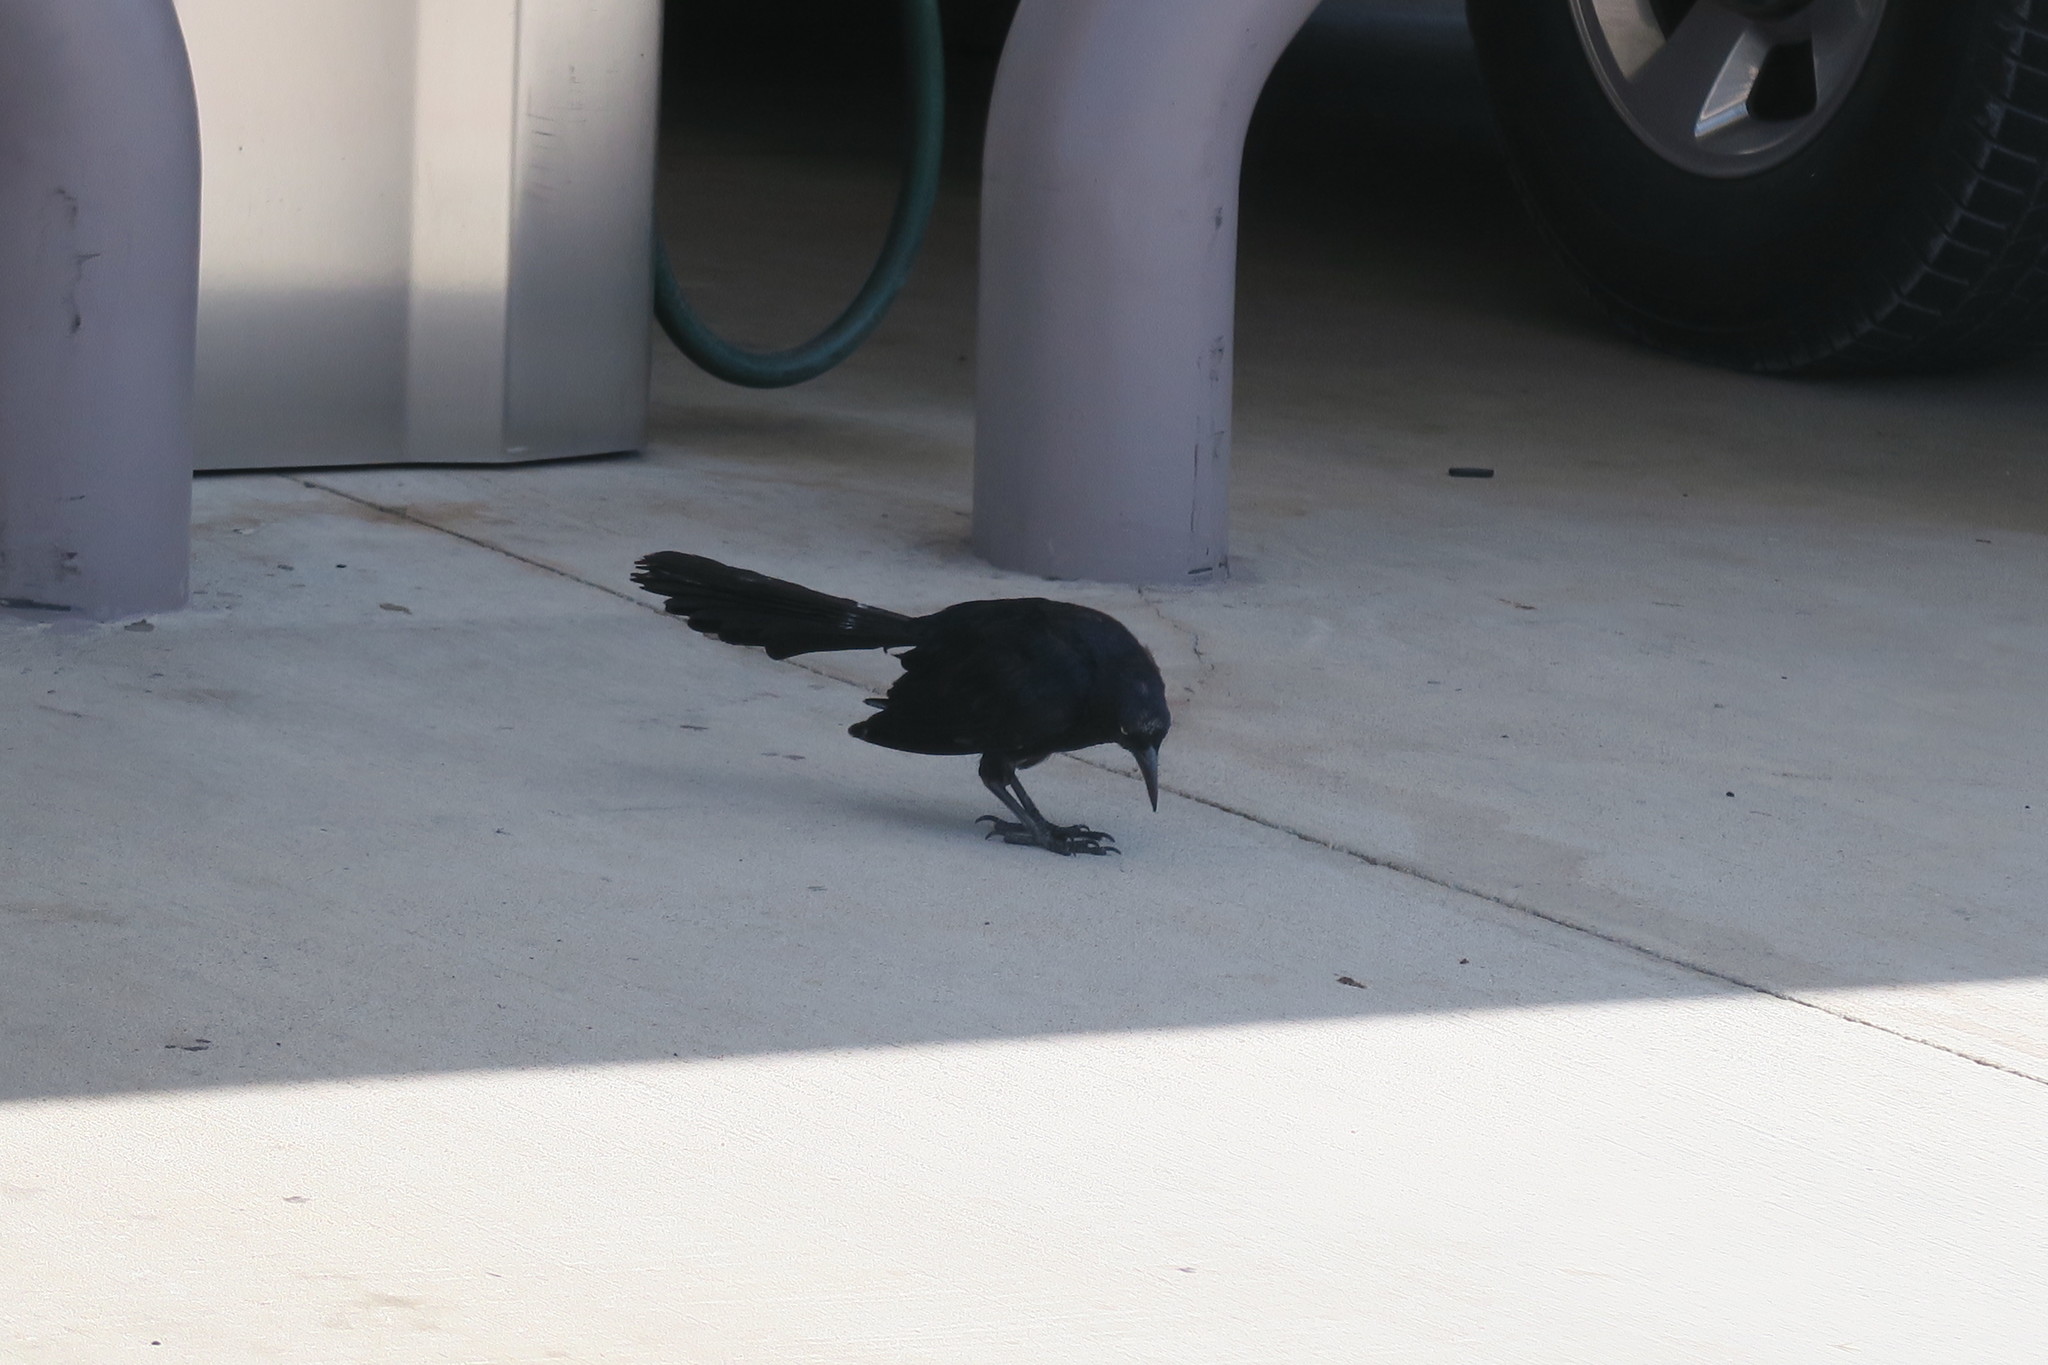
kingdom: Animalia
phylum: Chordata
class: Aves
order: Passeriformes
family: Icteridae
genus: Quiscalus
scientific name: Quiscalus mexicanus
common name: Great-tailed grackle
